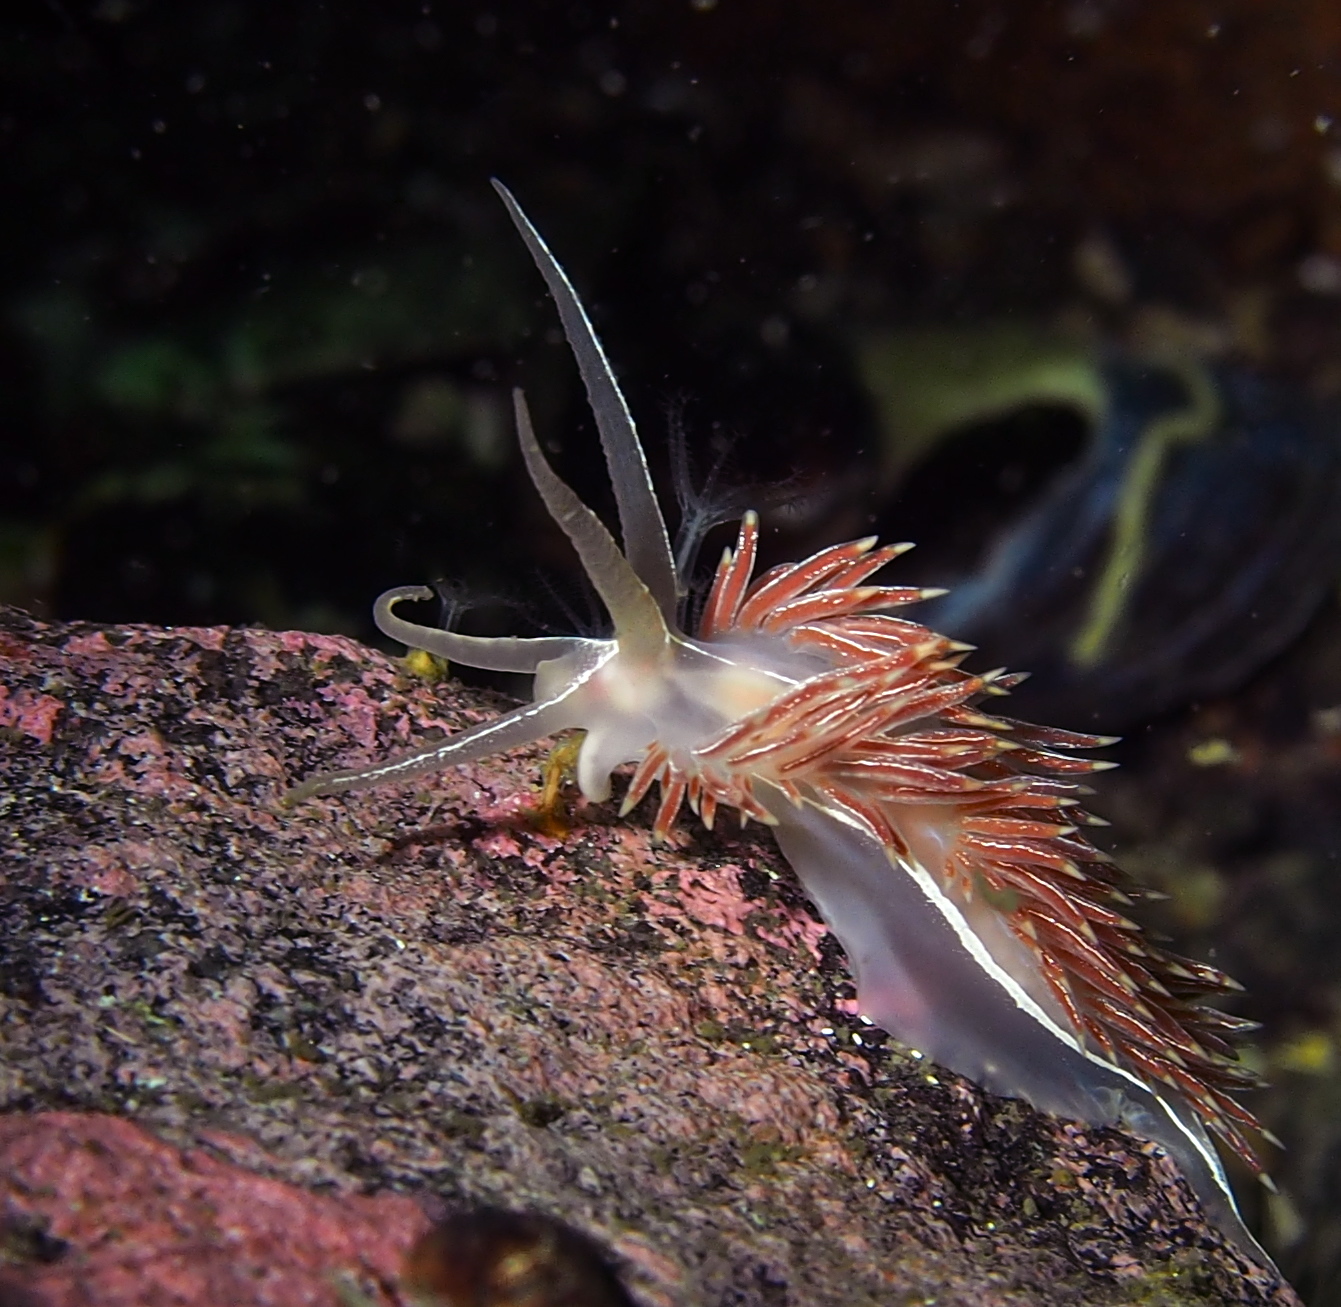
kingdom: Animalia
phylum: Mollusca
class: Gastropoda
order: Nudibranchia
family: Coryphellidae
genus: Coryphella
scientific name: Coryphella chriskaugei
